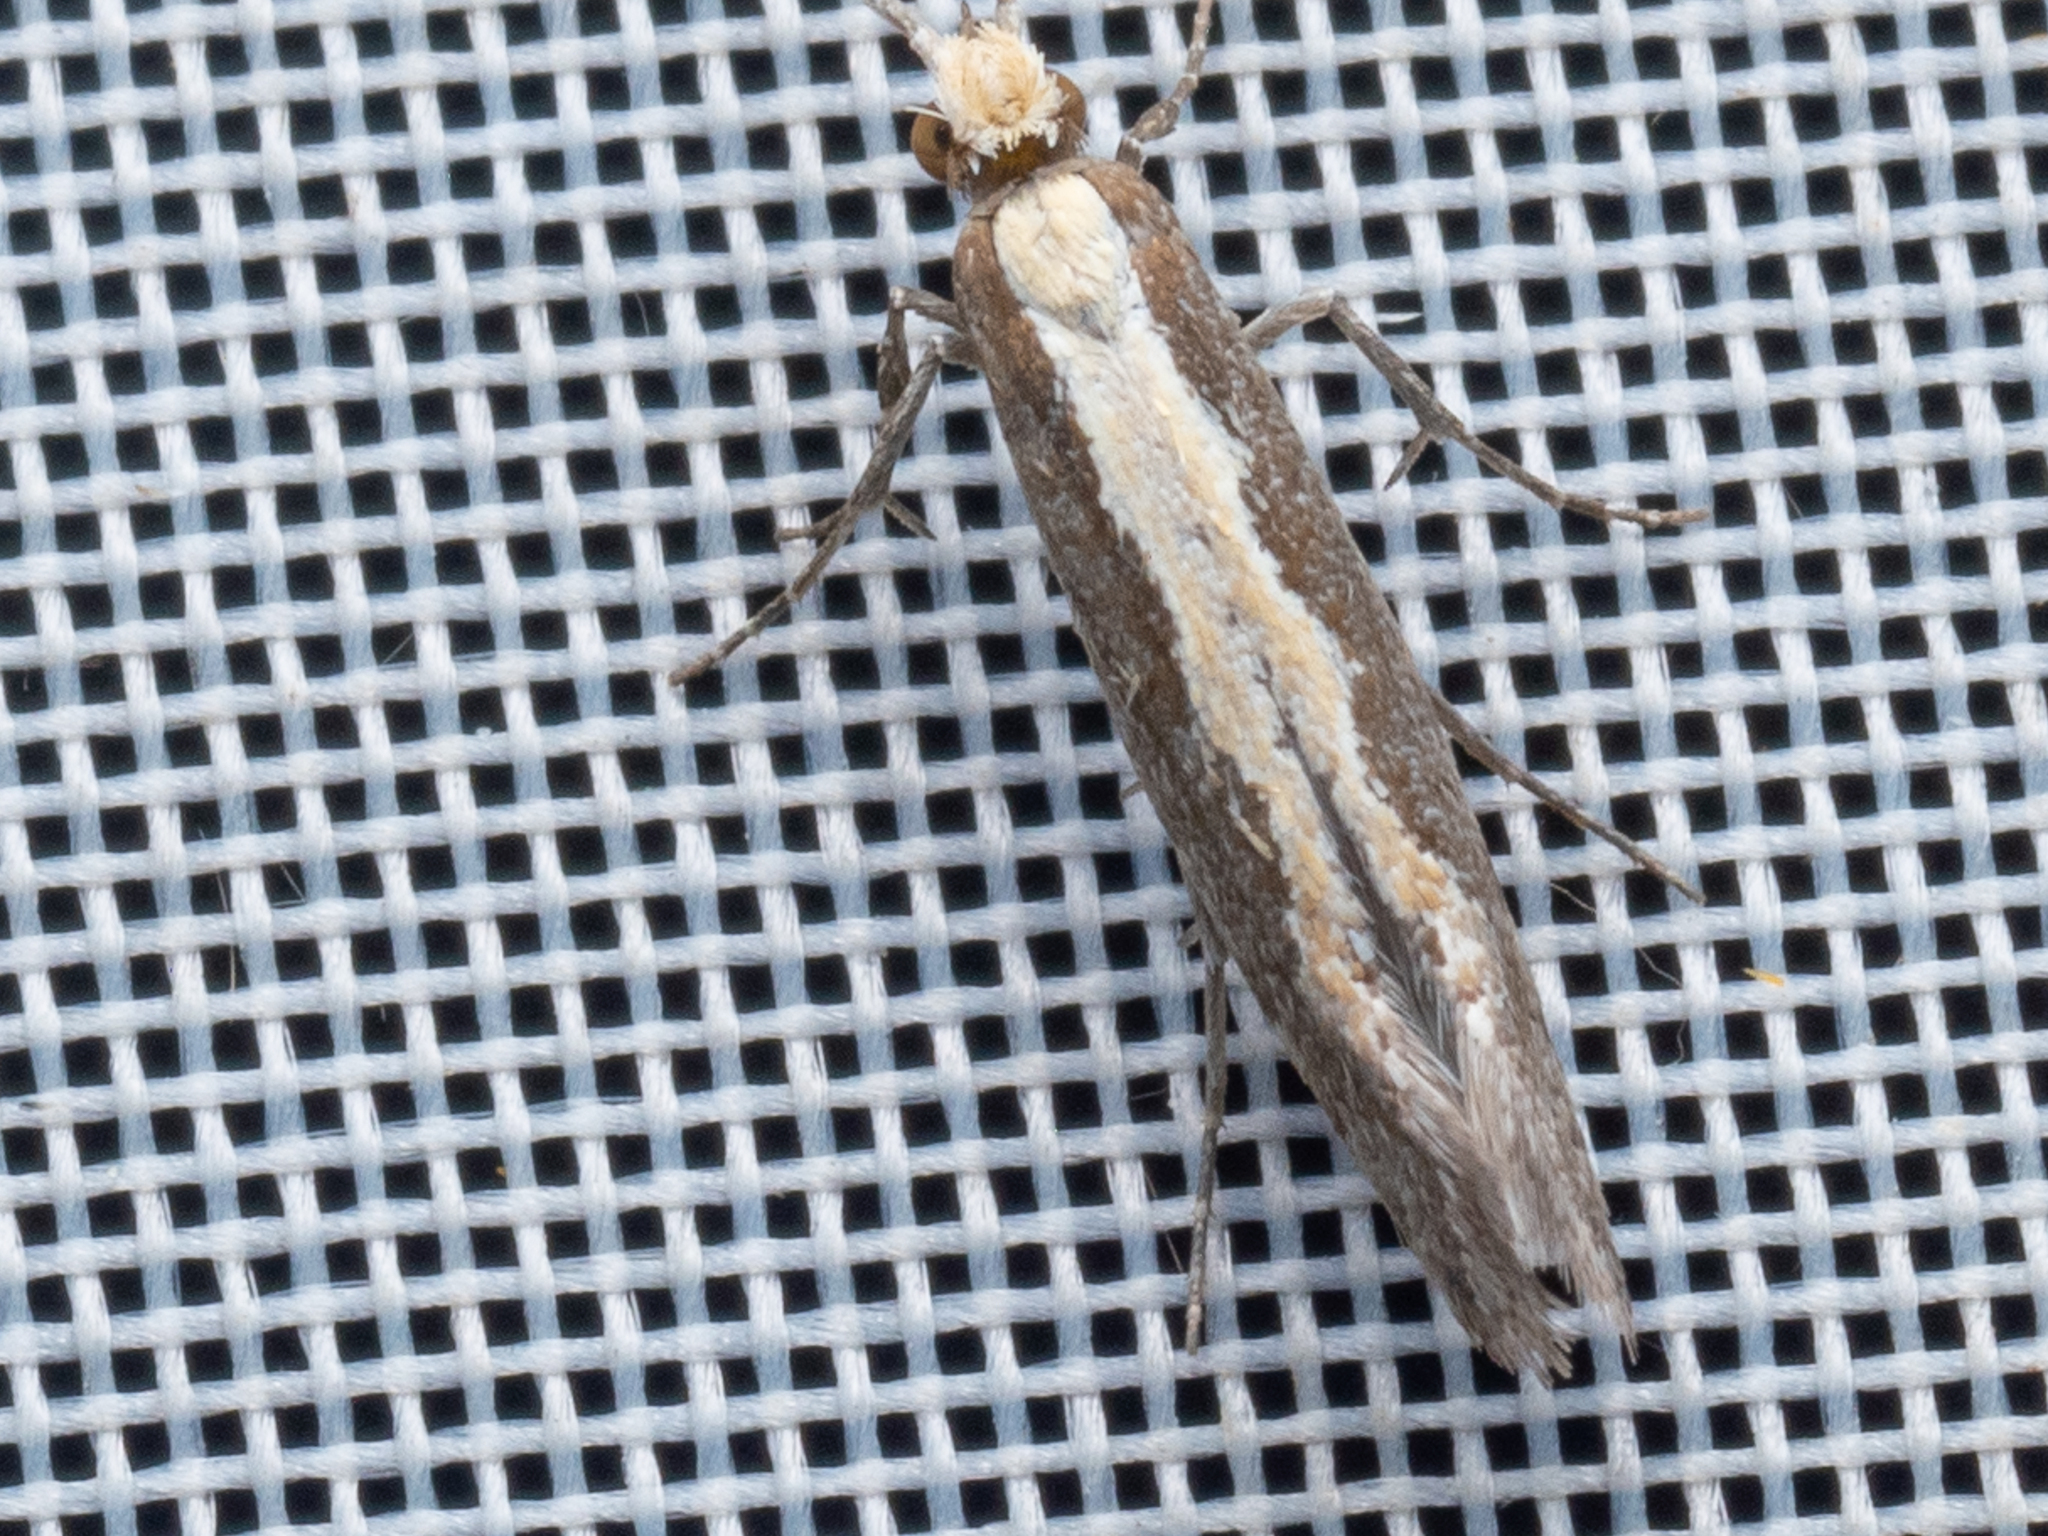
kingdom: Animalia
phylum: Arthropoda
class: Insecta
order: Lepidoptera
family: Plutellidae
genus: Plutella
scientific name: Plutella xylostella
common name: Diamond-back moth
